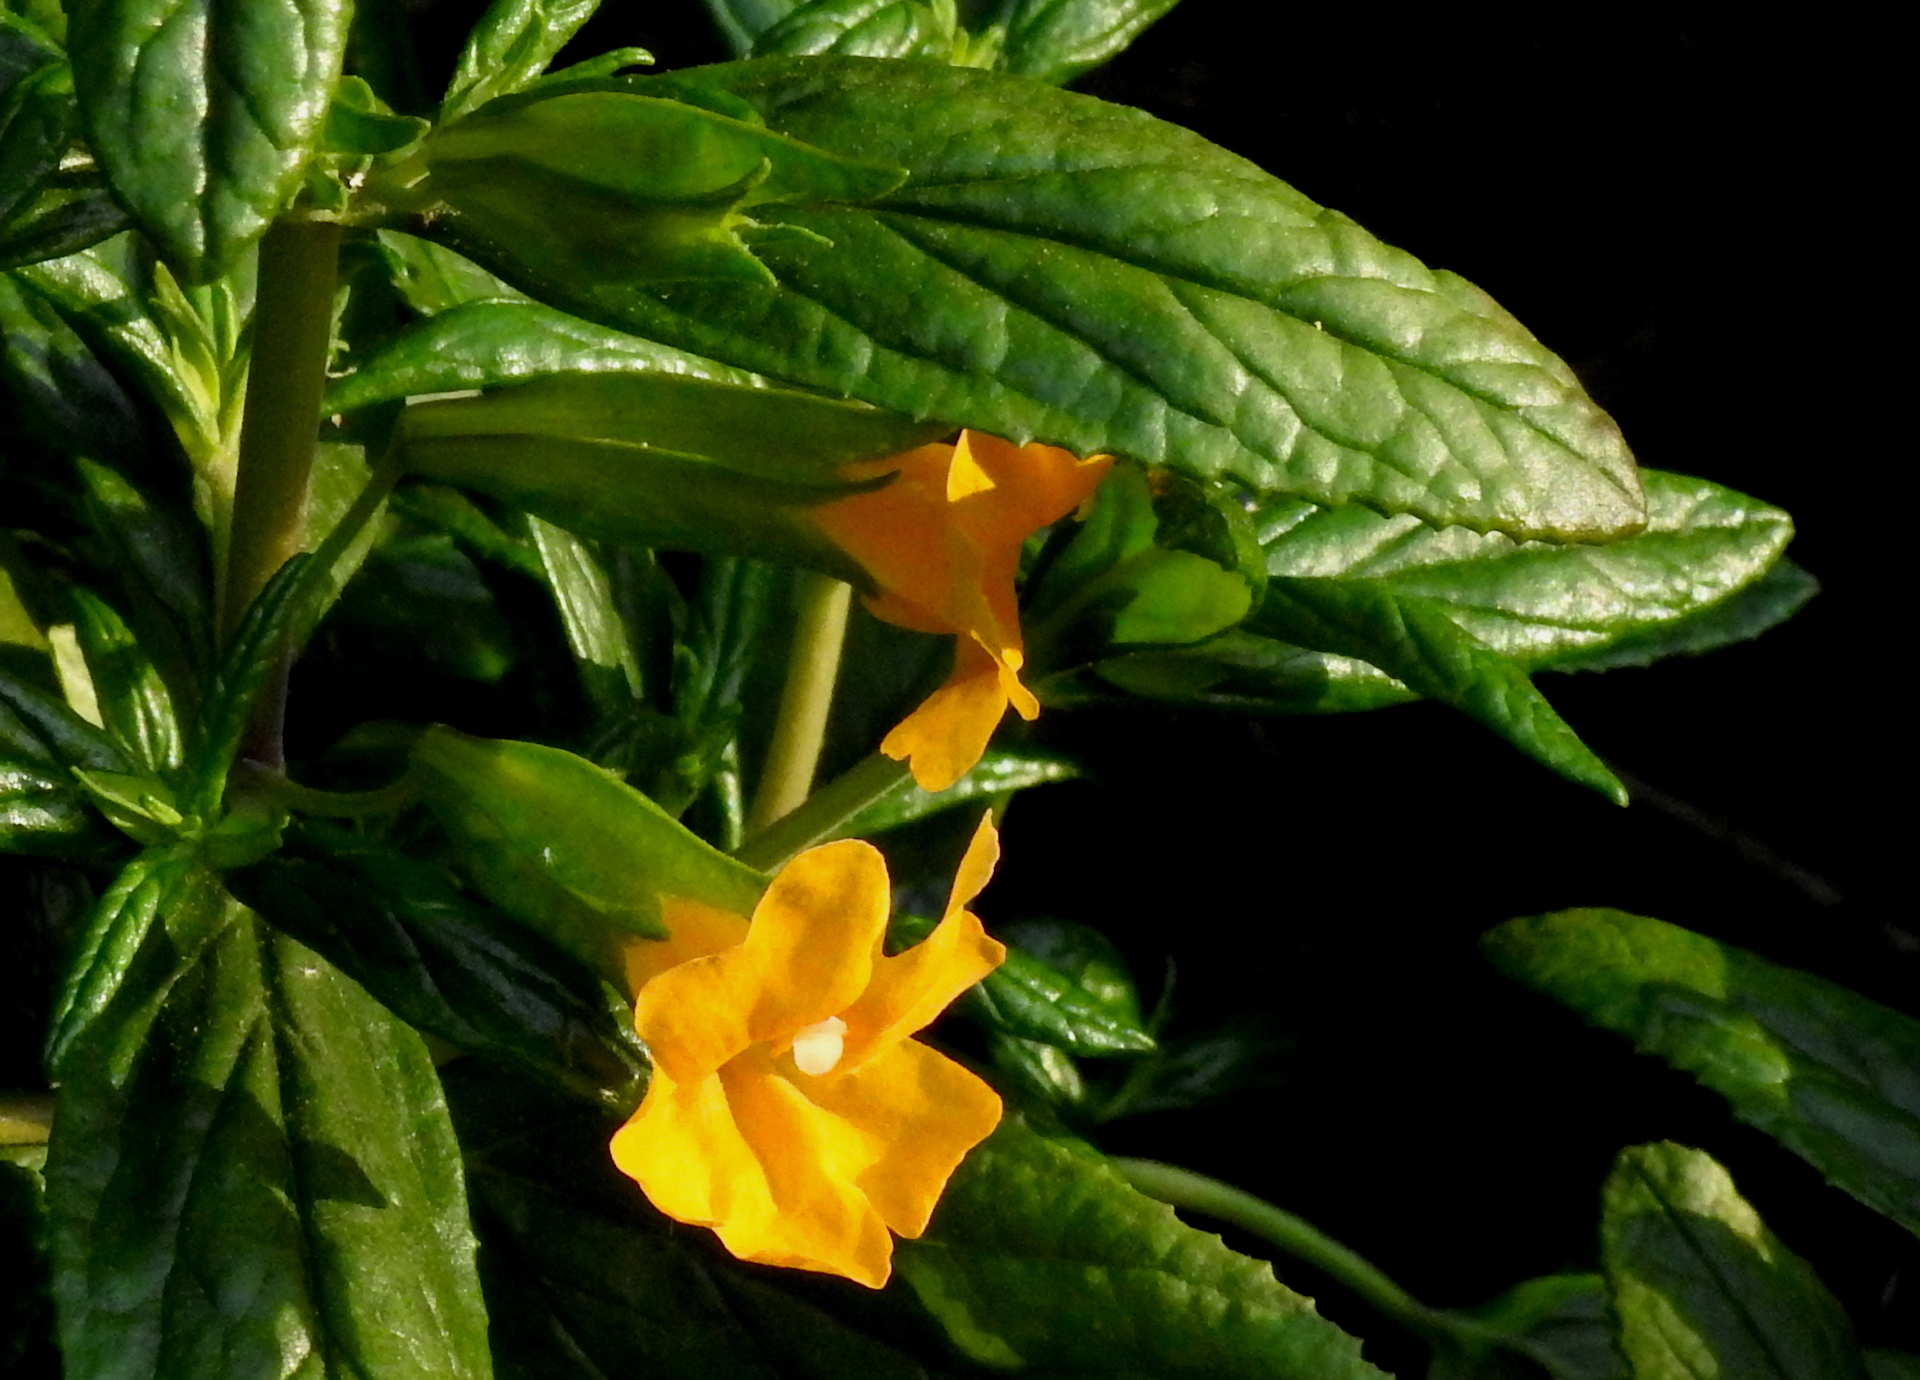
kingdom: Plantae
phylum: Tracheophyta
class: Magnoliopsida
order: Lamiales
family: Phrymaceae
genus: Diplacus
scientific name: Diplacus aurantiacus
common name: Bush monkey-flower
